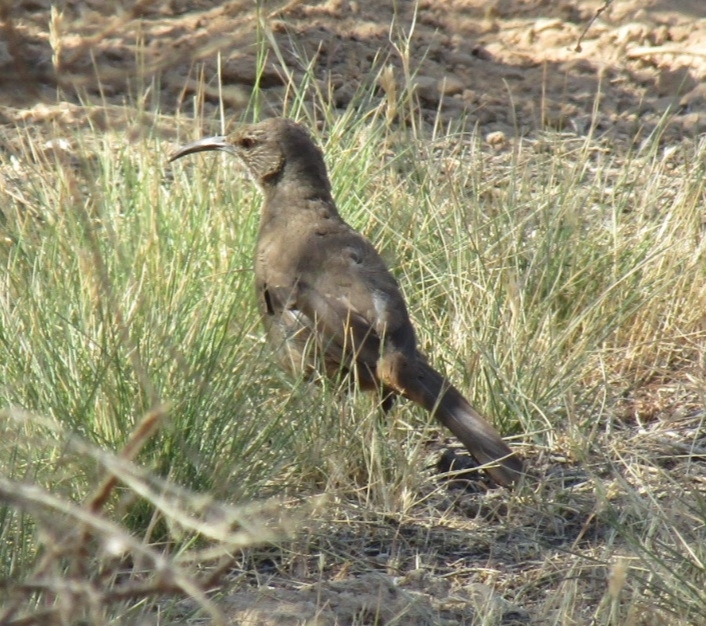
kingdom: Animalia
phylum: Chordata
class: Aves
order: Passeriformes
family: Mimidae
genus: Toxostoma
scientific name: Toxostoma redivivum
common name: California thrasher
